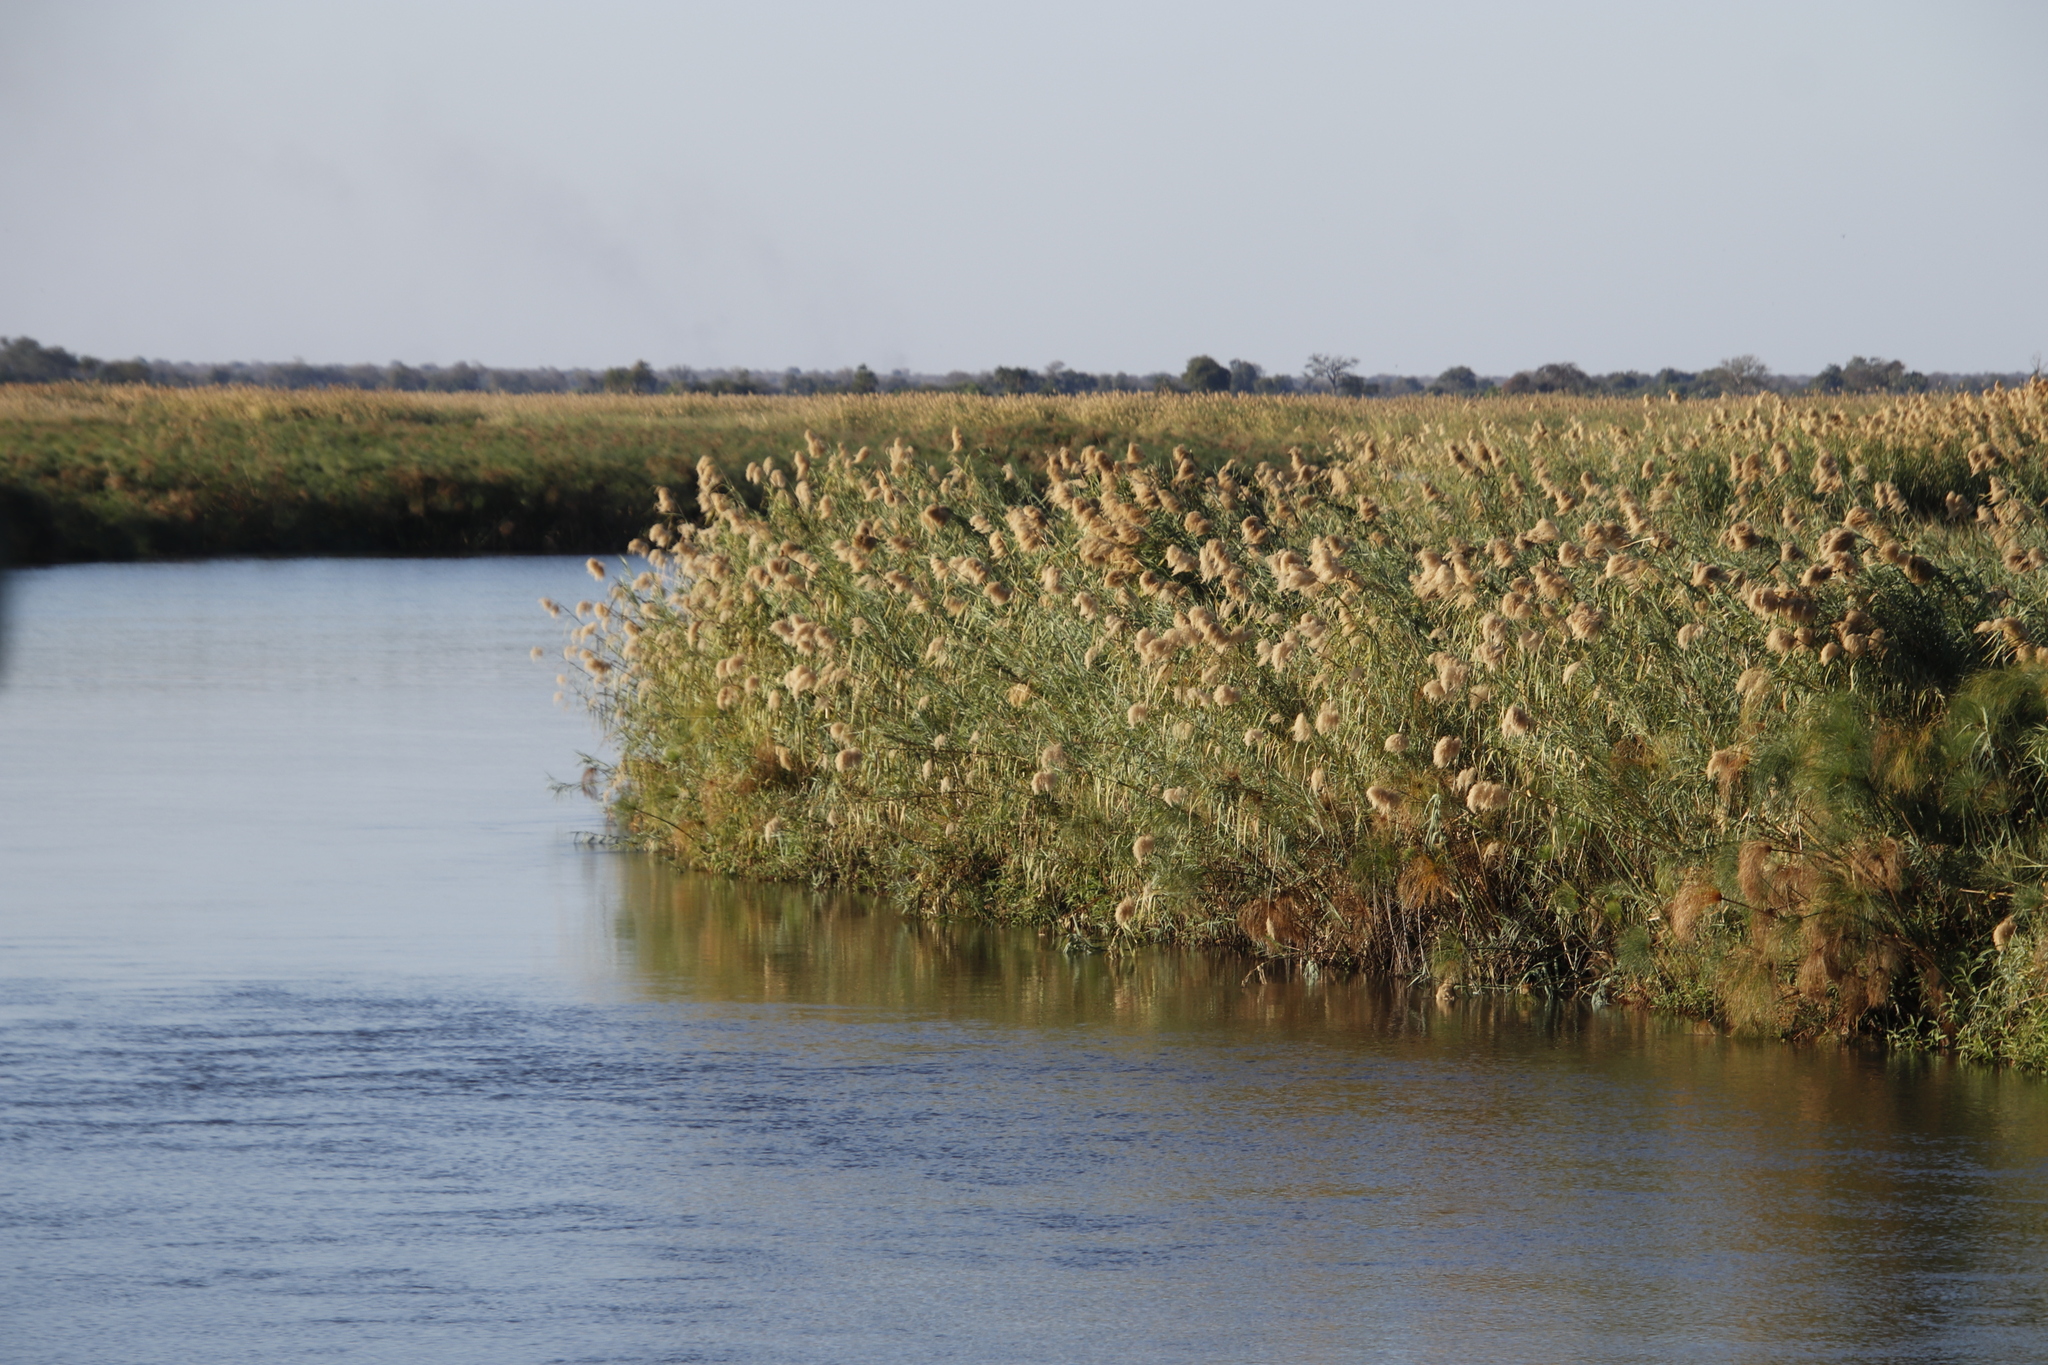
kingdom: Plantae
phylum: Tracheophyta
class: Liliopsida
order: Poales
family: Poaceae
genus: Phragmites
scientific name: Phragmites australis
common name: Common reed
